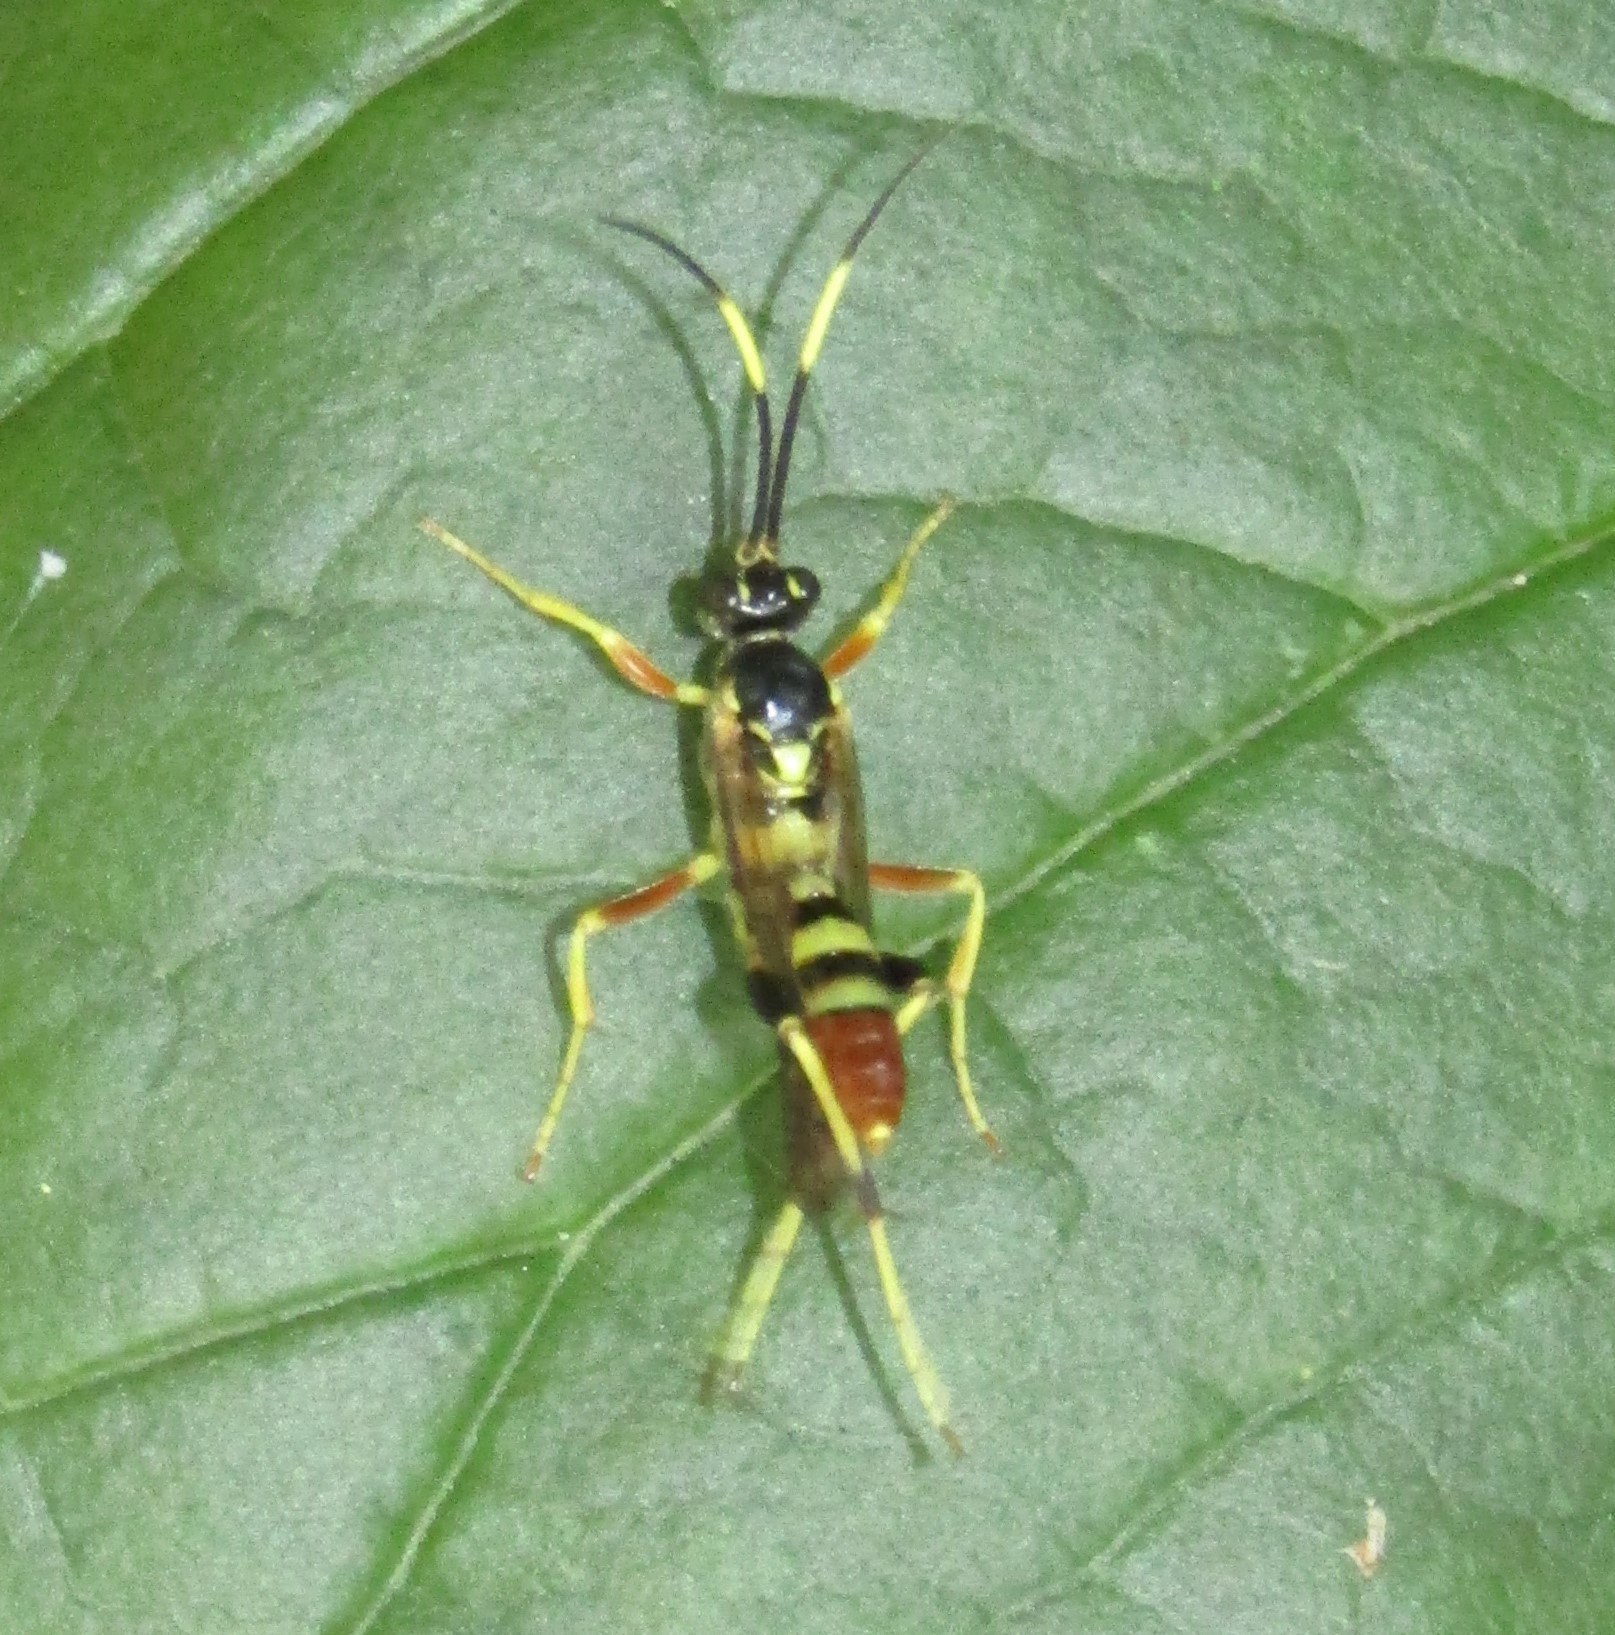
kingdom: Animalia
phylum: Arthropoda
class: Insecta
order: Hymenoptera
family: Ichneumonidae
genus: Polytribax
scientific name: Polytribax contiguus
